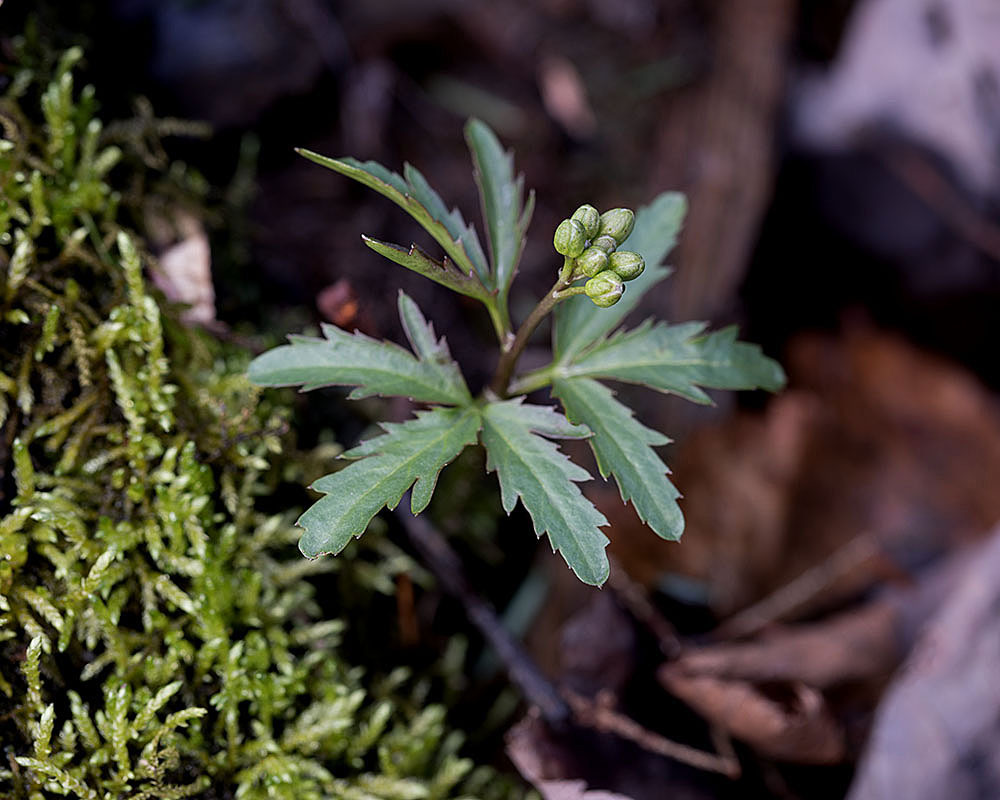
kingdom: Plantae
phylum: Tracheophyta
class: Magnoliopsida
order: Brassicales
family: Brassicaceae
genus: Cardamine
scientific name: Cardamine concatenata
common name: Cut-leaf toothcup
